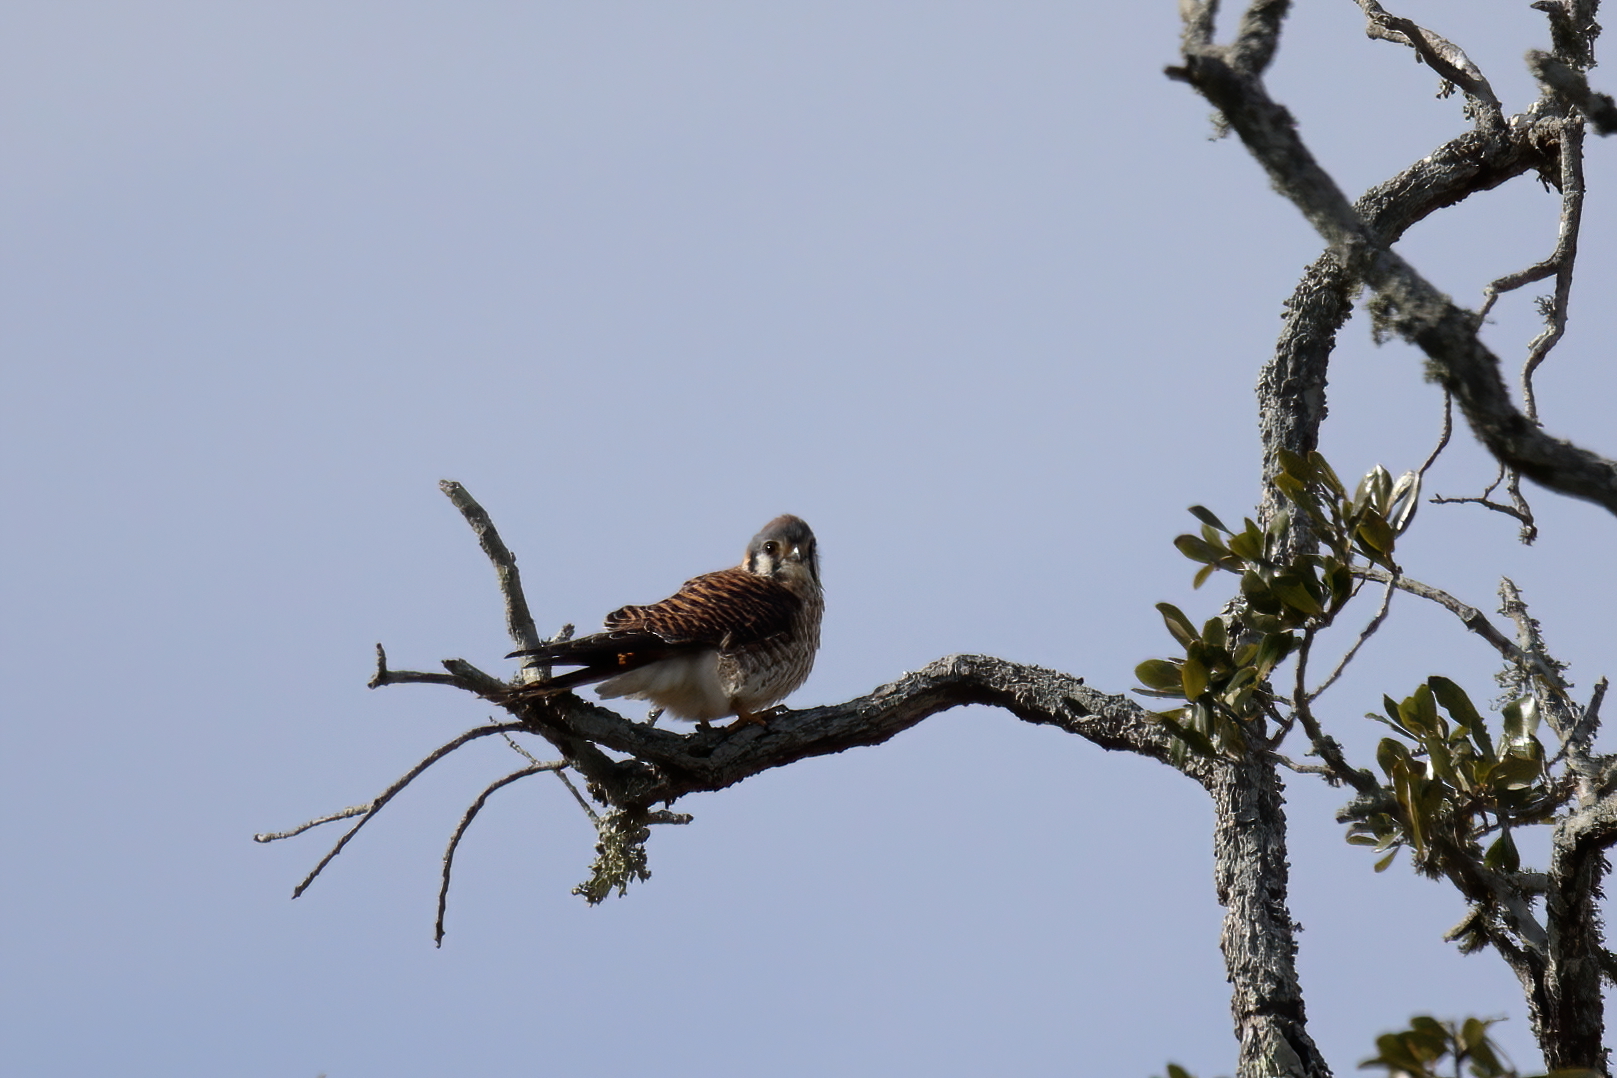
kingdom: Animalia
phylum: Chordata
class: Aves
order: Falconiformes
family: Falconidae
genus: Falco
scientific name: Falco sparverius
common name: American kestrel
